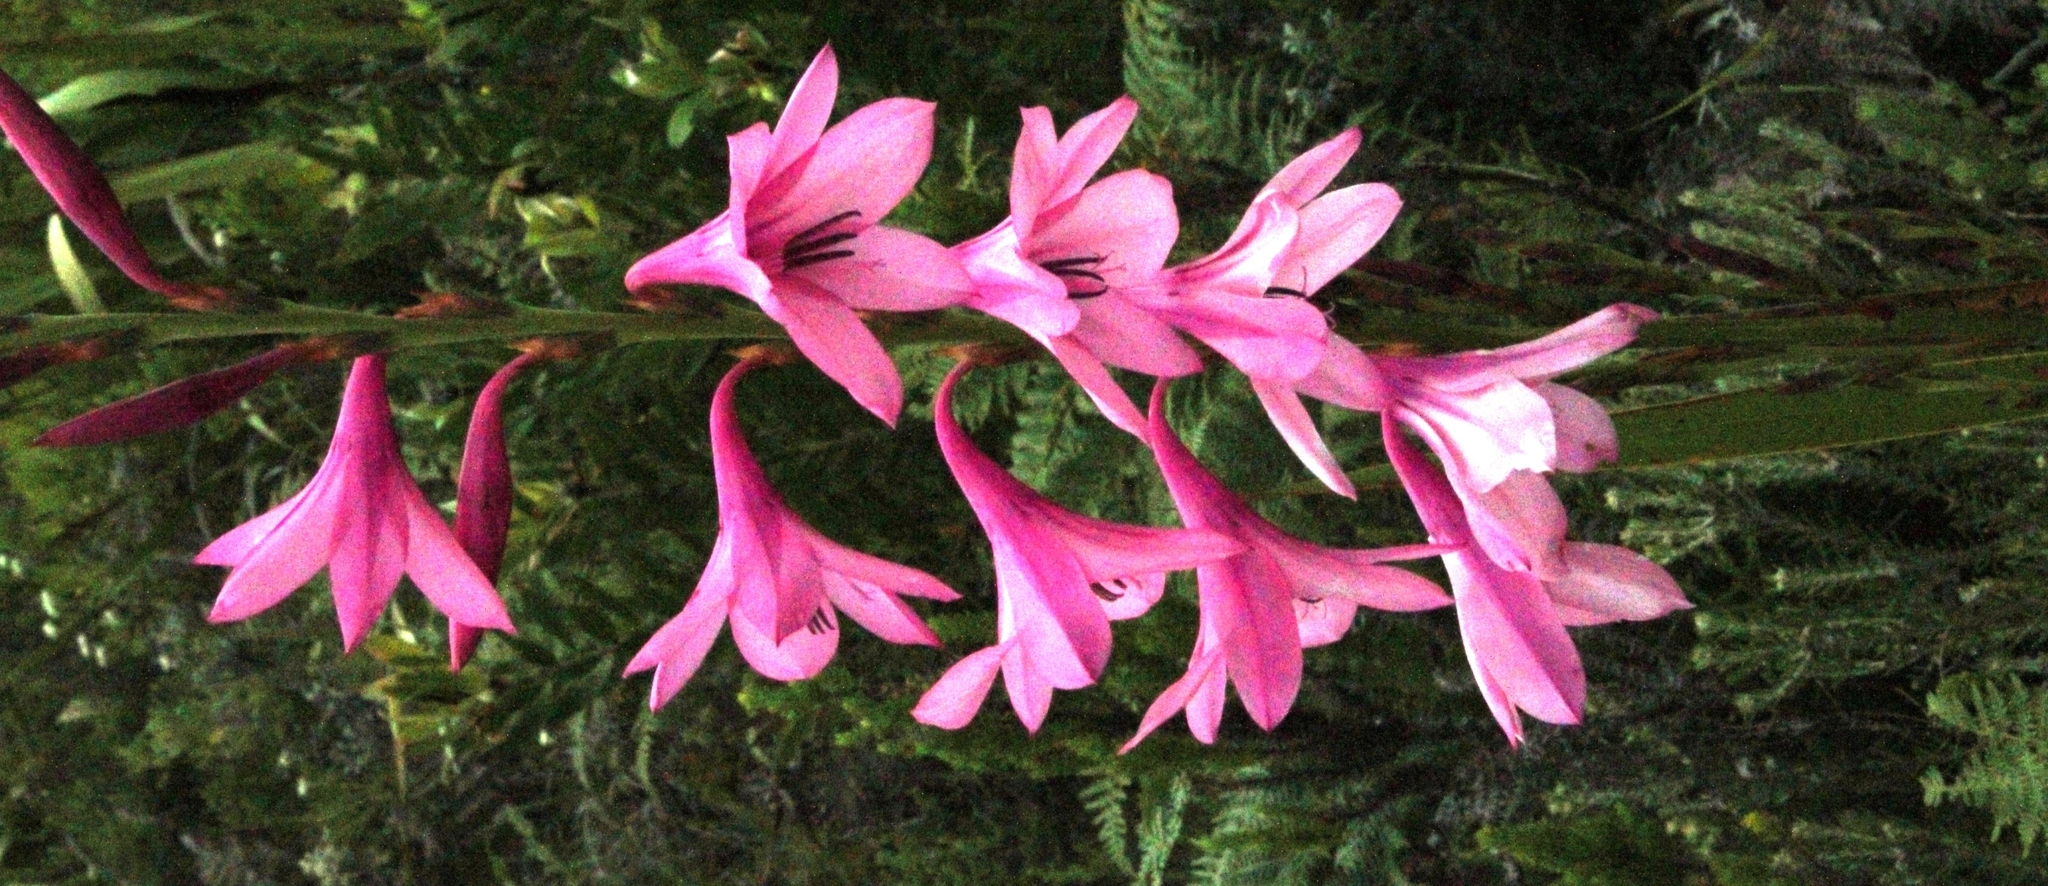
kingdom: Plantae
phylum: Tracheophyta
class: Liliopsida
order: Asparagales
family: Iridaceae
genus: Watsonia
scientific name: Watsonia borbonica
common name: Bugle-lily
